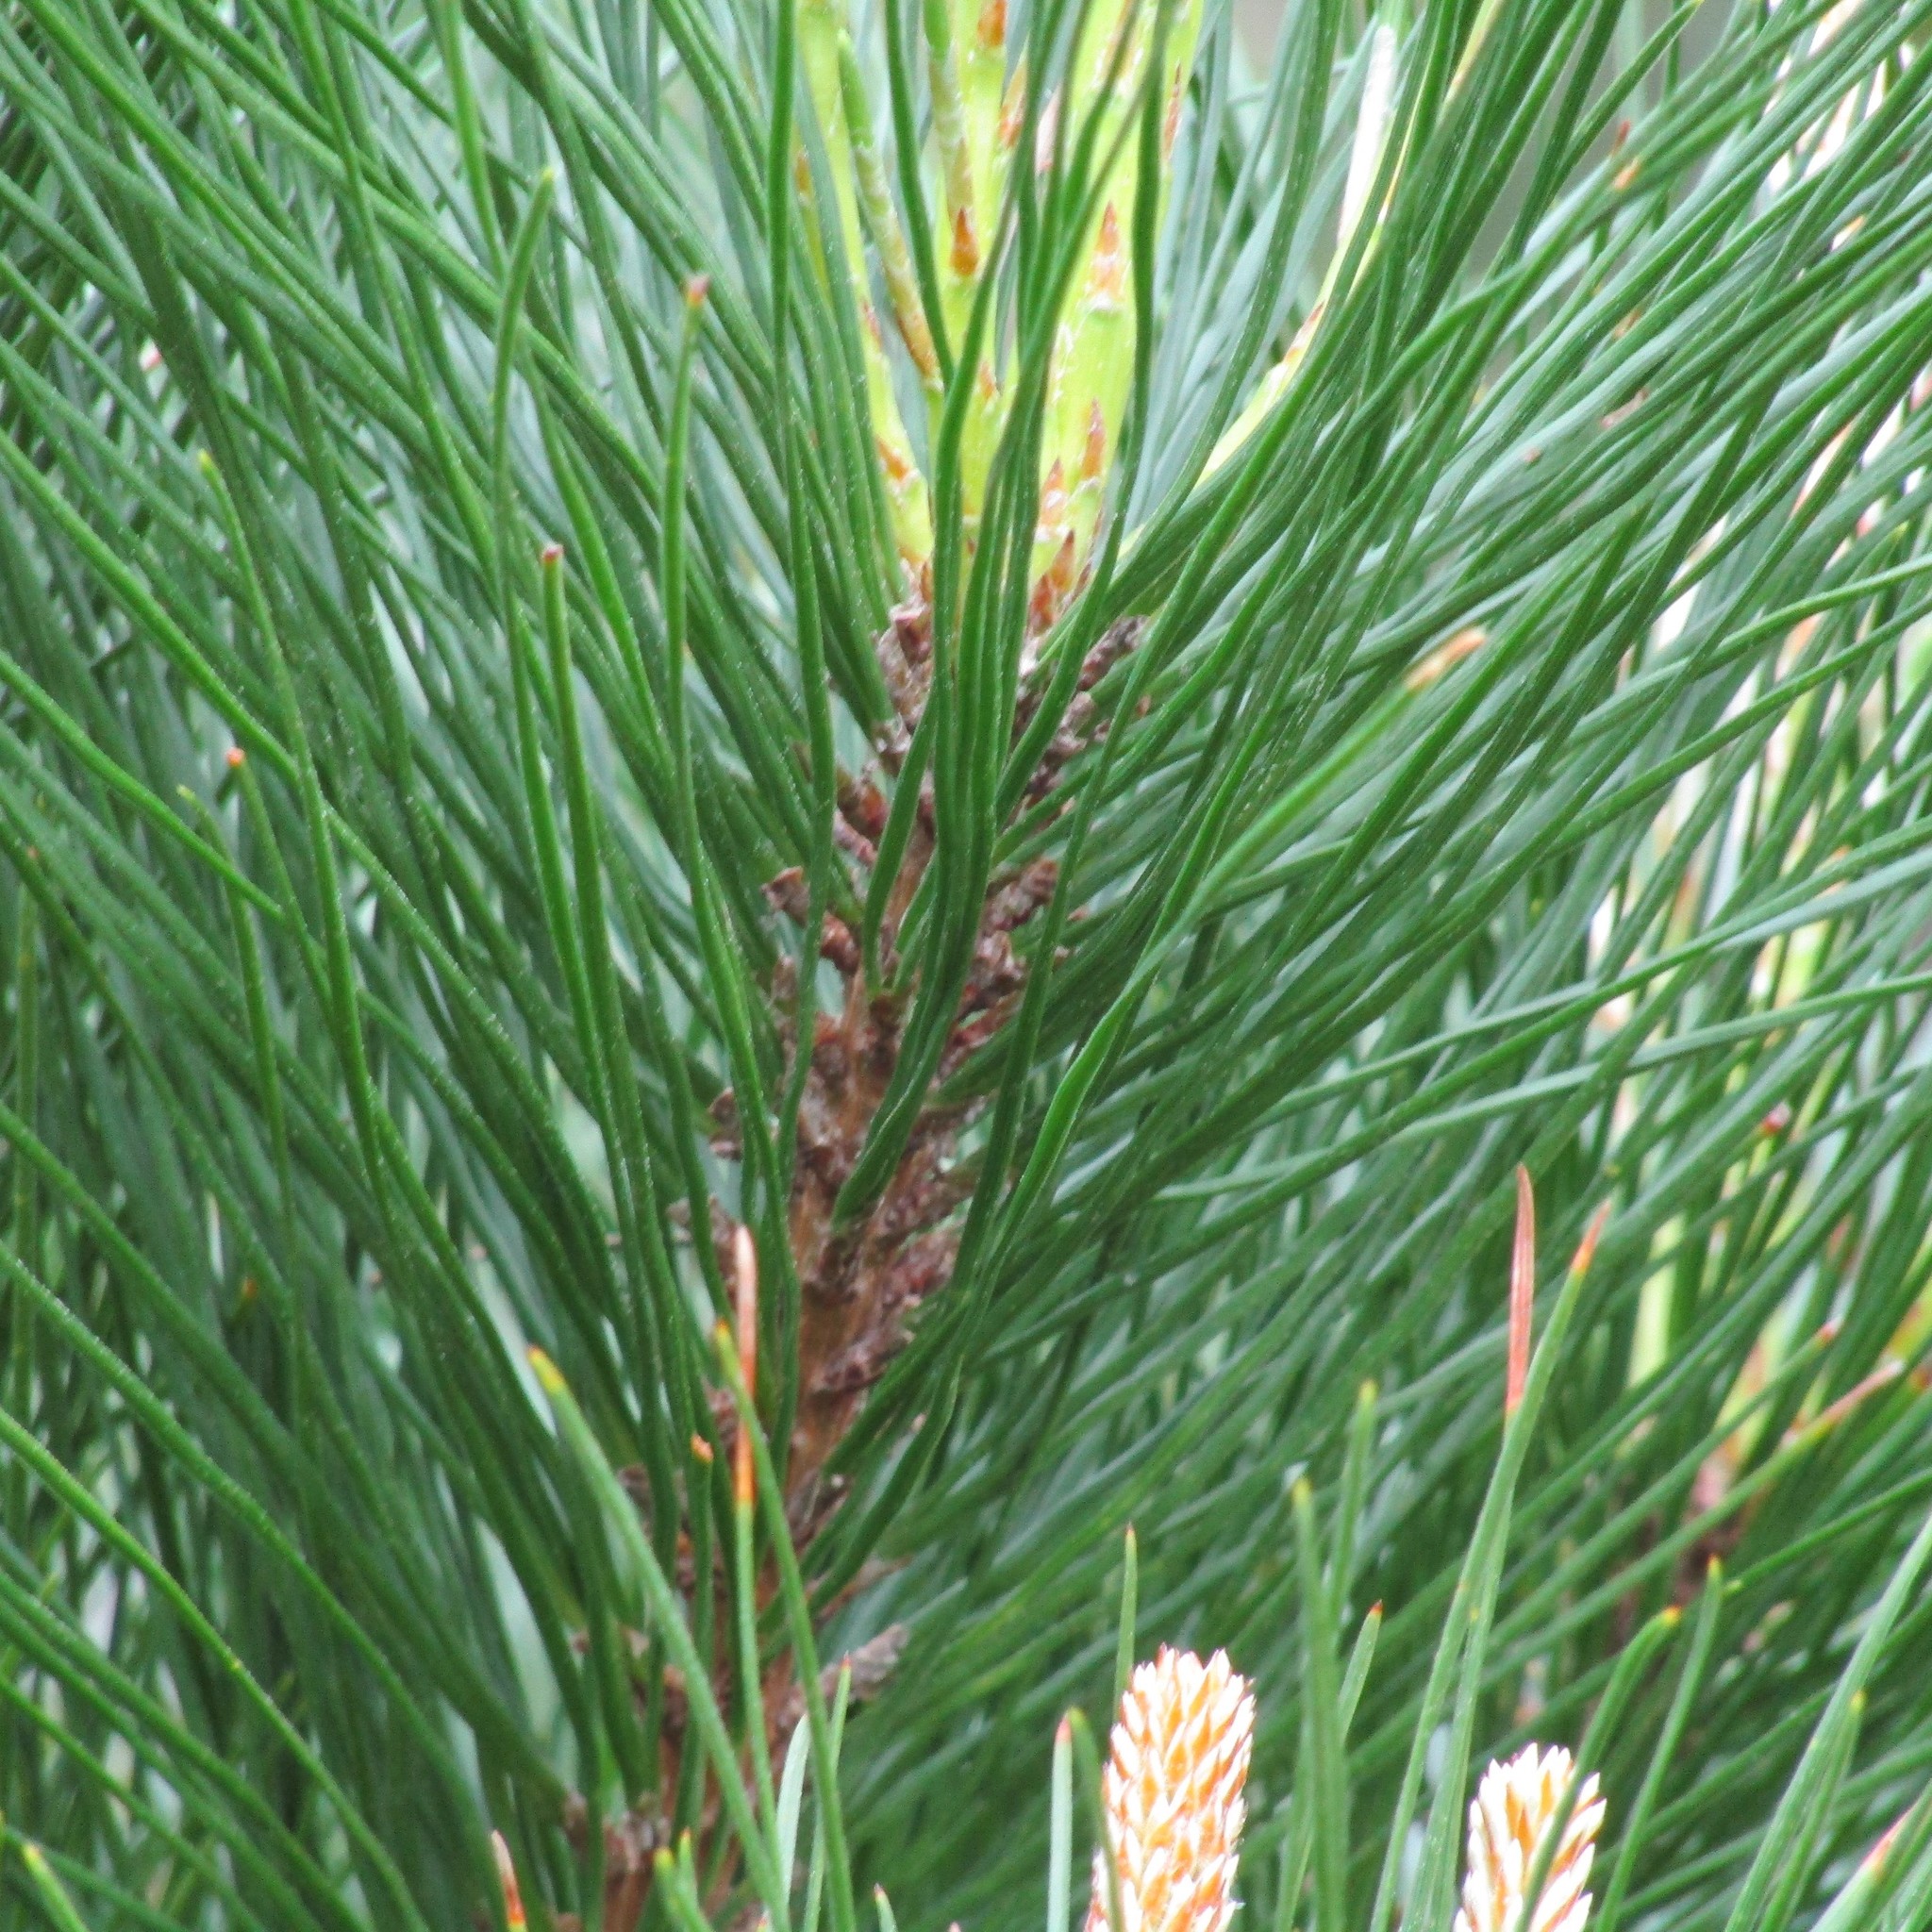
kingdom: Plantae
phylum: Tracheophyta
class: Pinopsida
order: Pinales
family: Pinaceae
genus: Pinus
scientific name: Pinus radiata
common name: Monterey pine
